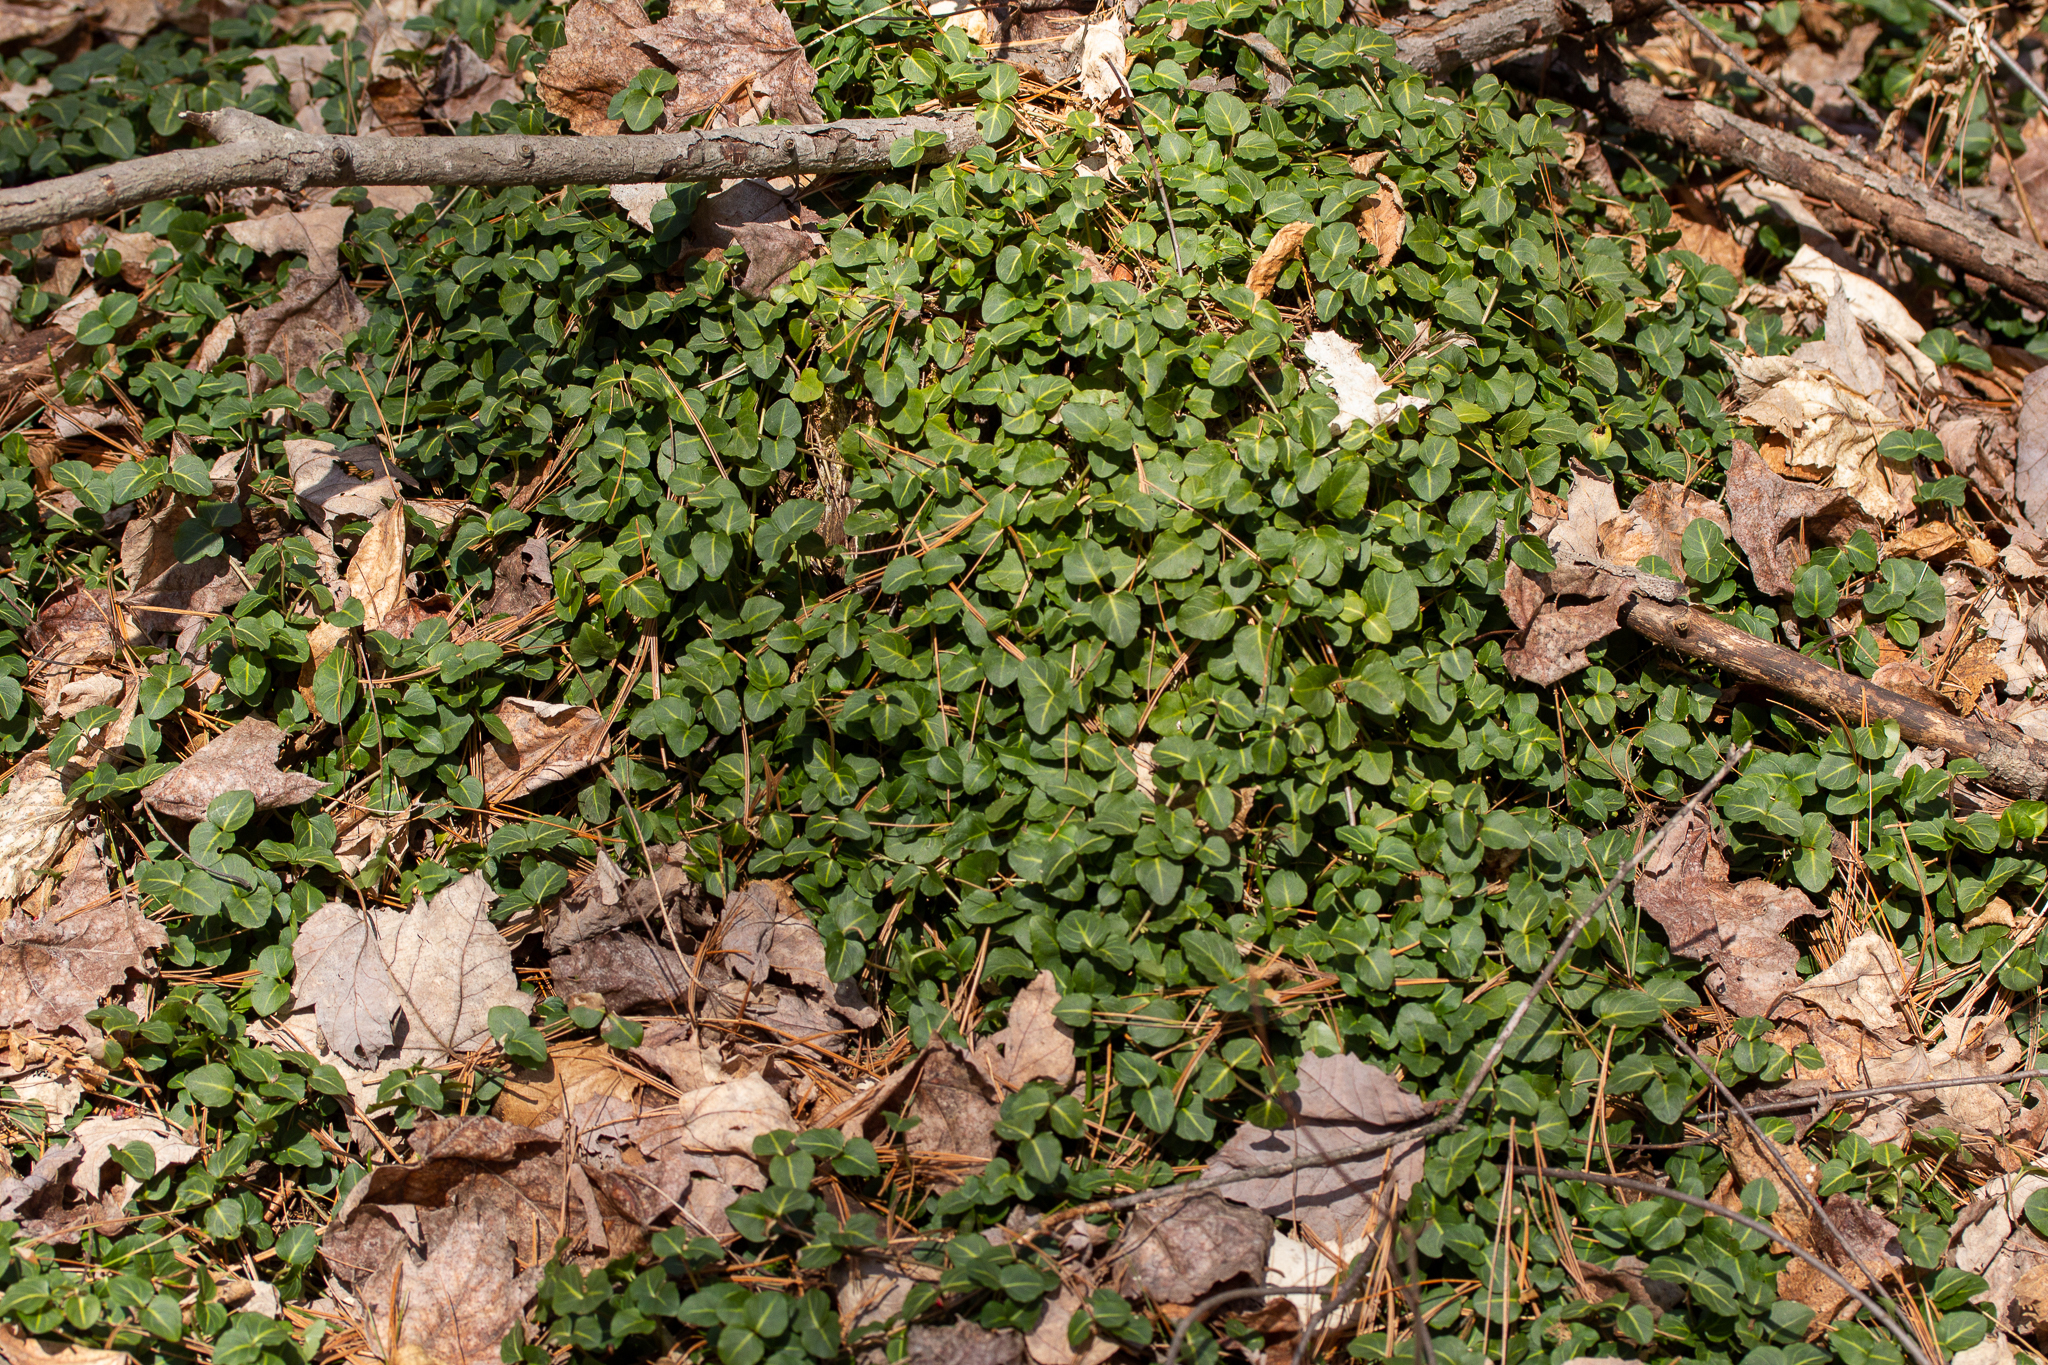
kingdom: Plantae
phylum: Tracheophyta
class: Magnoliopsida
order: Gentianales
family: Rubiaceae
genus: Mitchella
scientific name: Mitchella repens
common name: Partridge-berry
